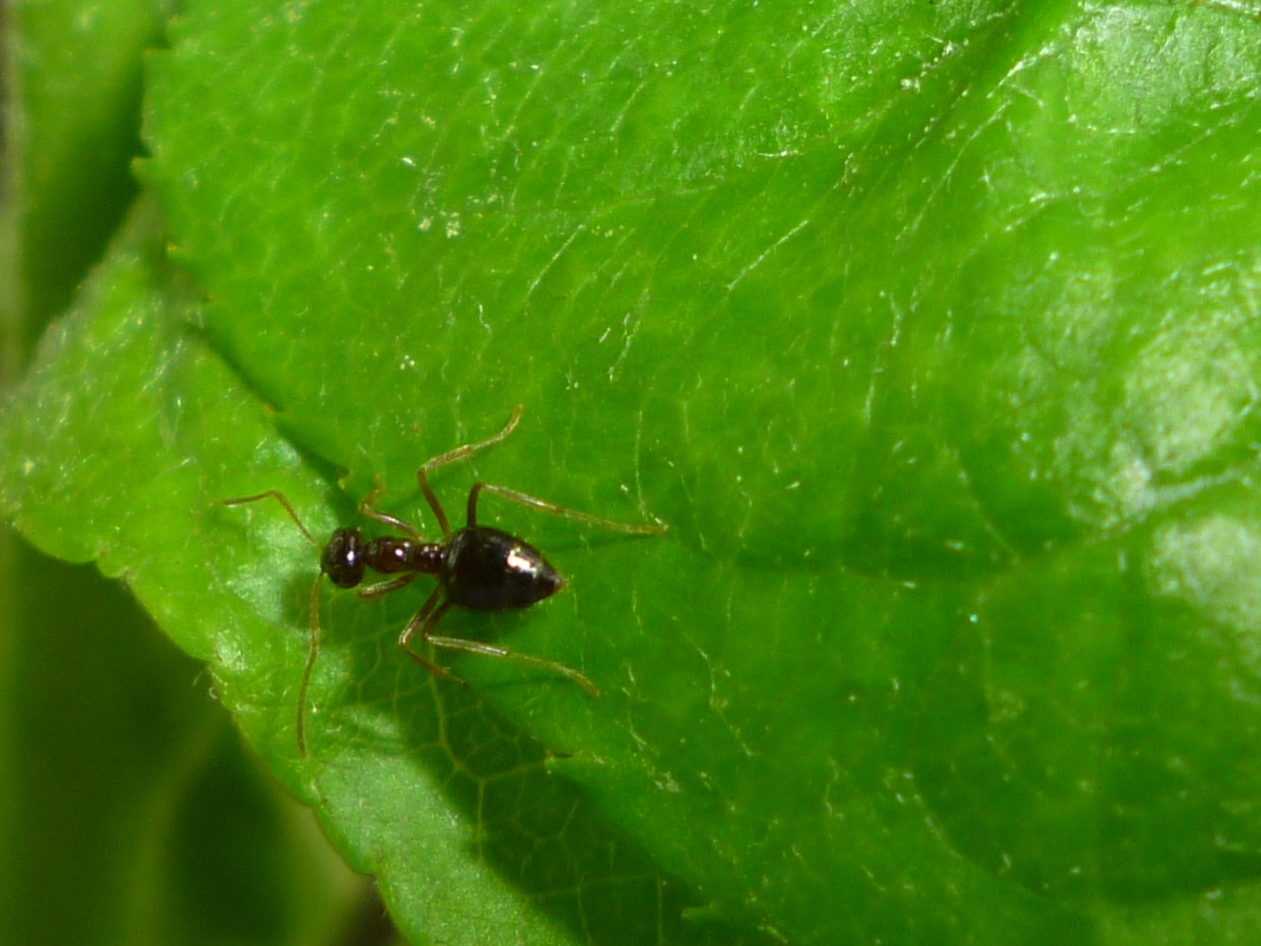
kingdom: Animalia
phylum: Arthropoda
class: Insecta
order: Hymenoptera
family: Formicidae
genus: Prenolepis
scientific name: Prenolepis imparis
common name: Small honey ant
